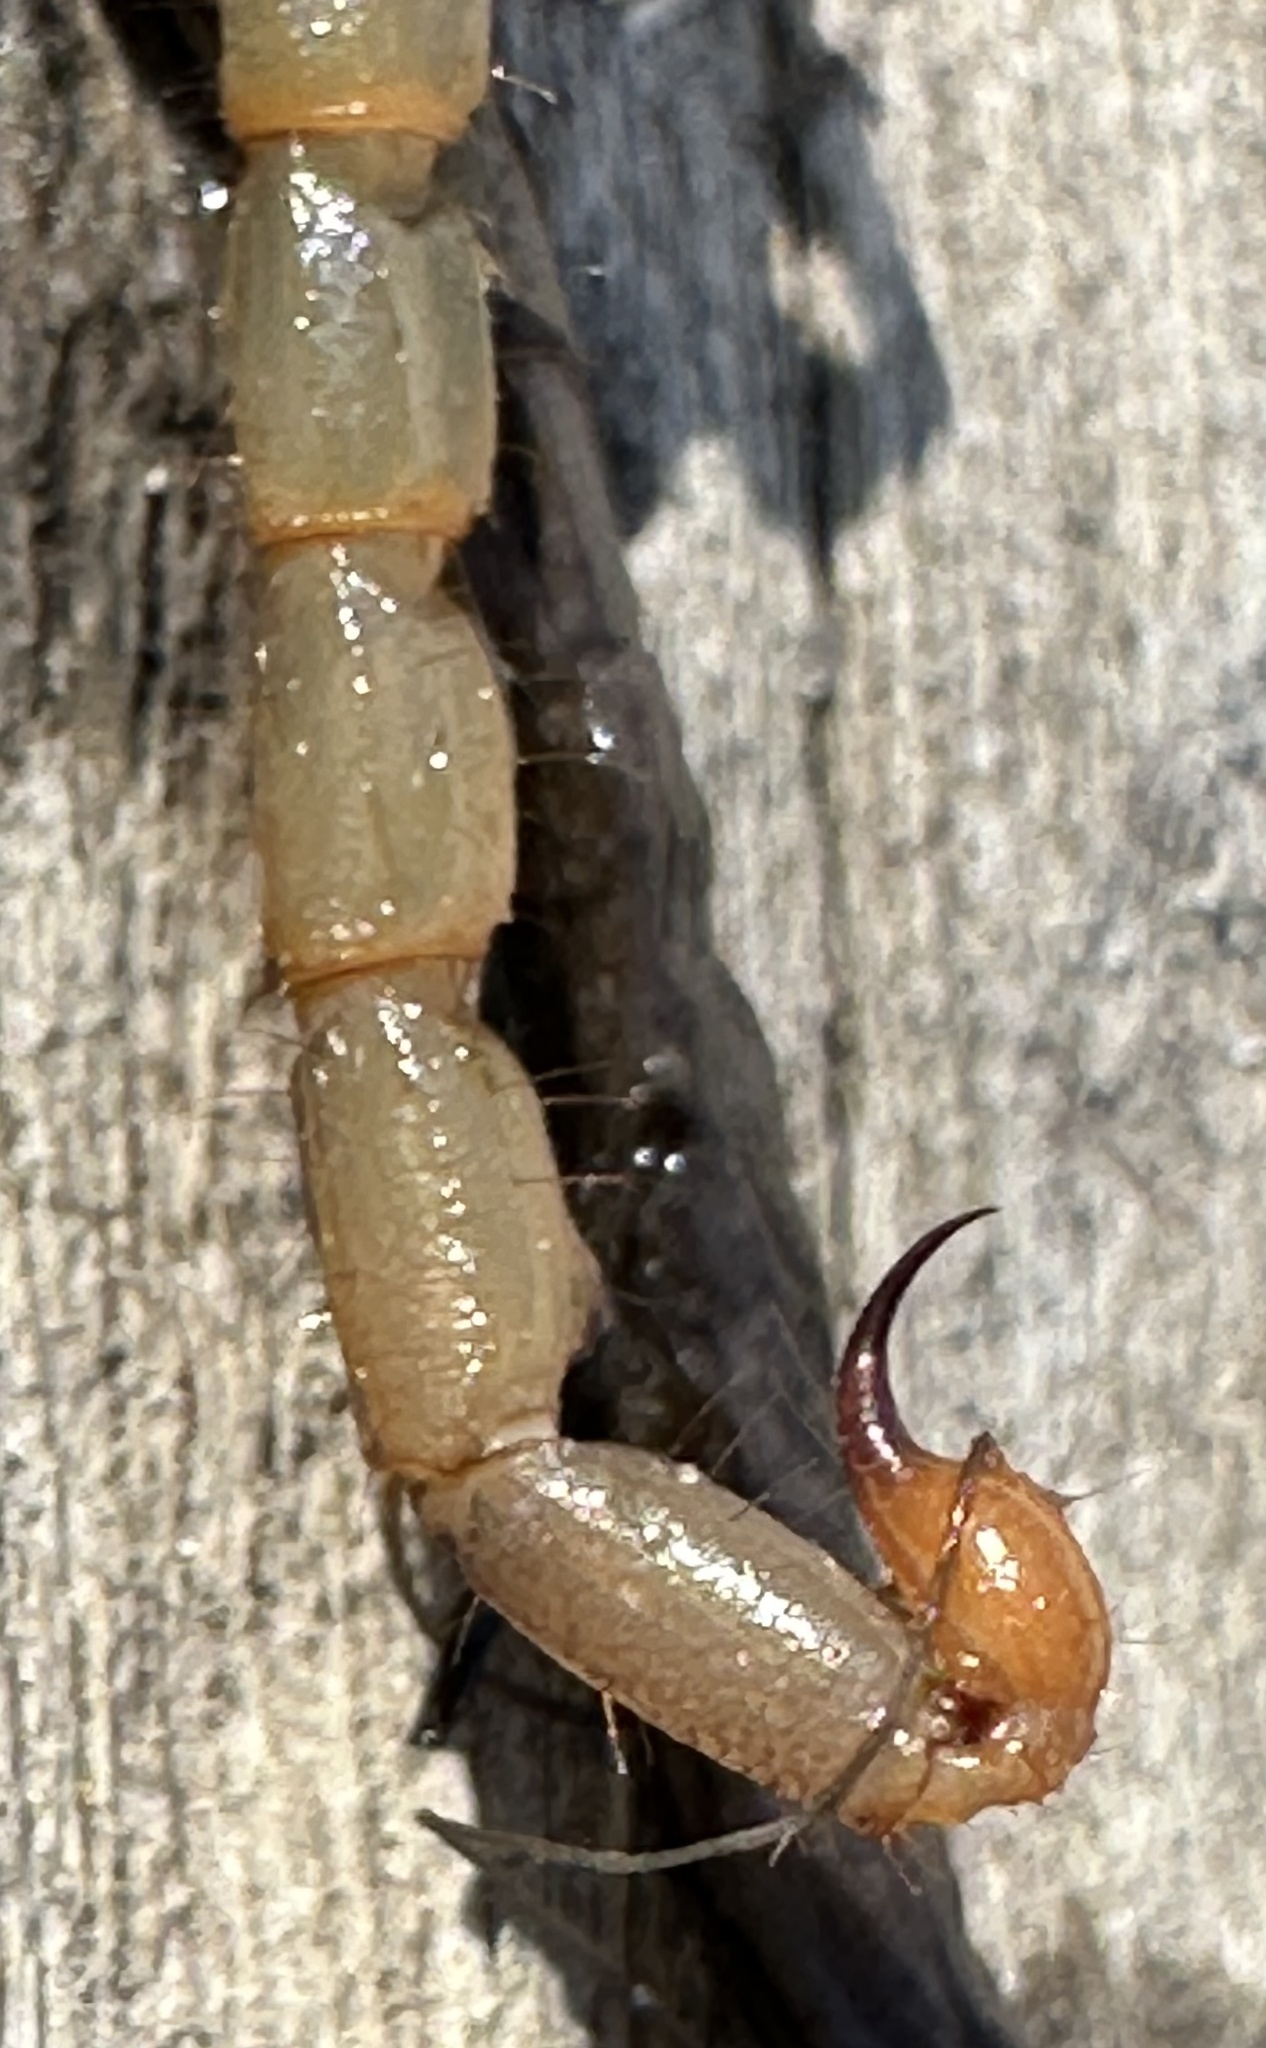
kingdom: Animalia
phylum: Arthropoda
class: Arachnida
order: Scorpiones
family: Buthidae
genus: Uroplectes
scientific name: Uroplectes vittatus
